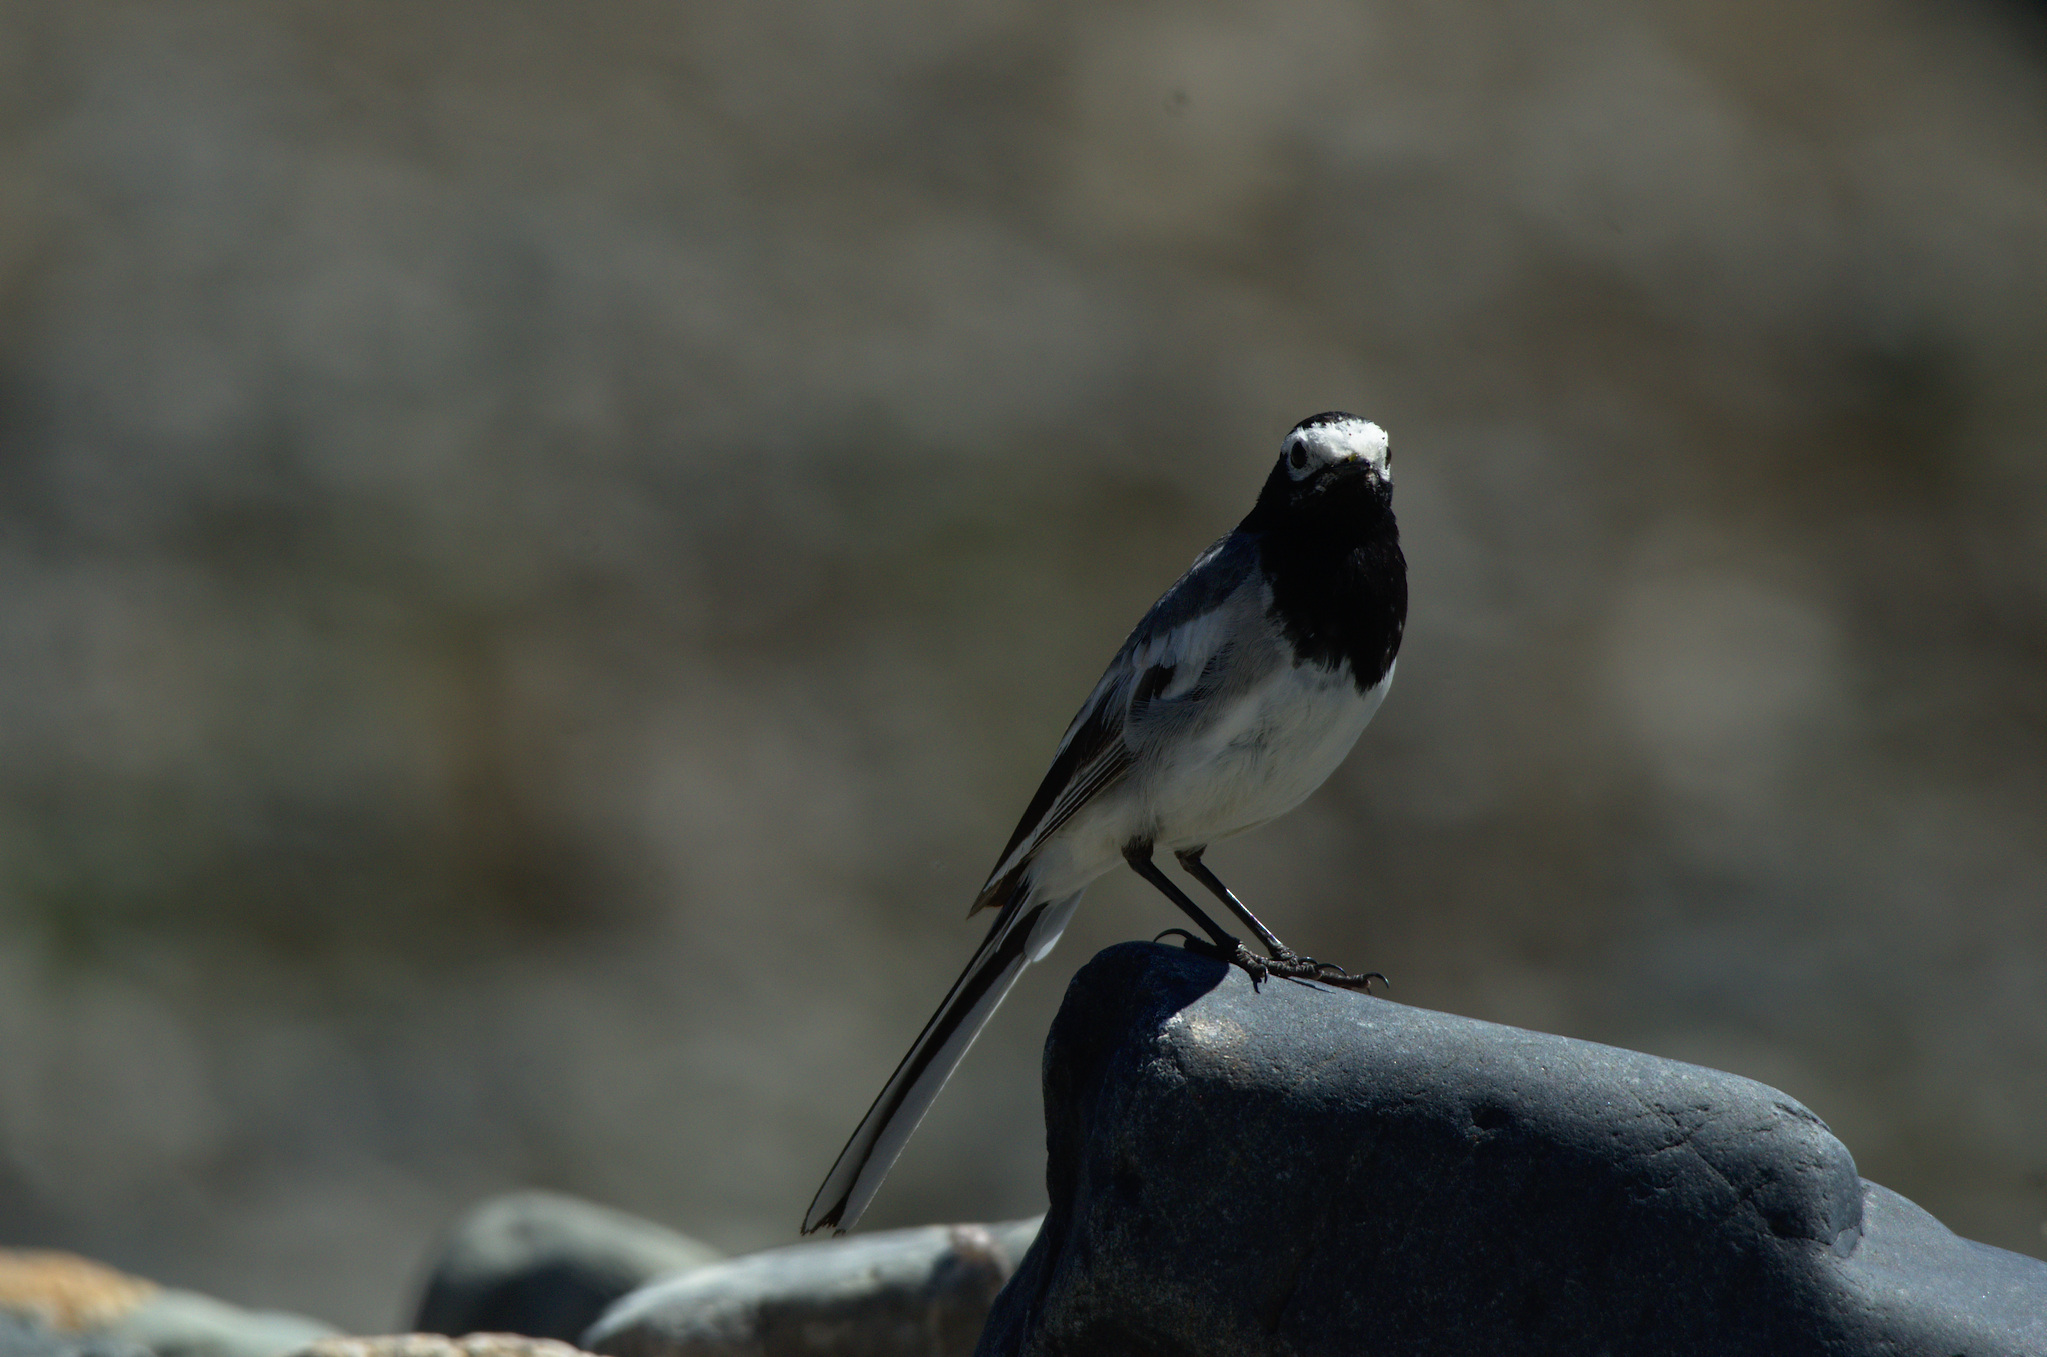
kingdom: Animalia
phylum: Chordata
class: Aves
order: Passeriformes
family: Motacillidae
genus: Motacilla
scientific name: Motacilla alba
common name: White wagtail
